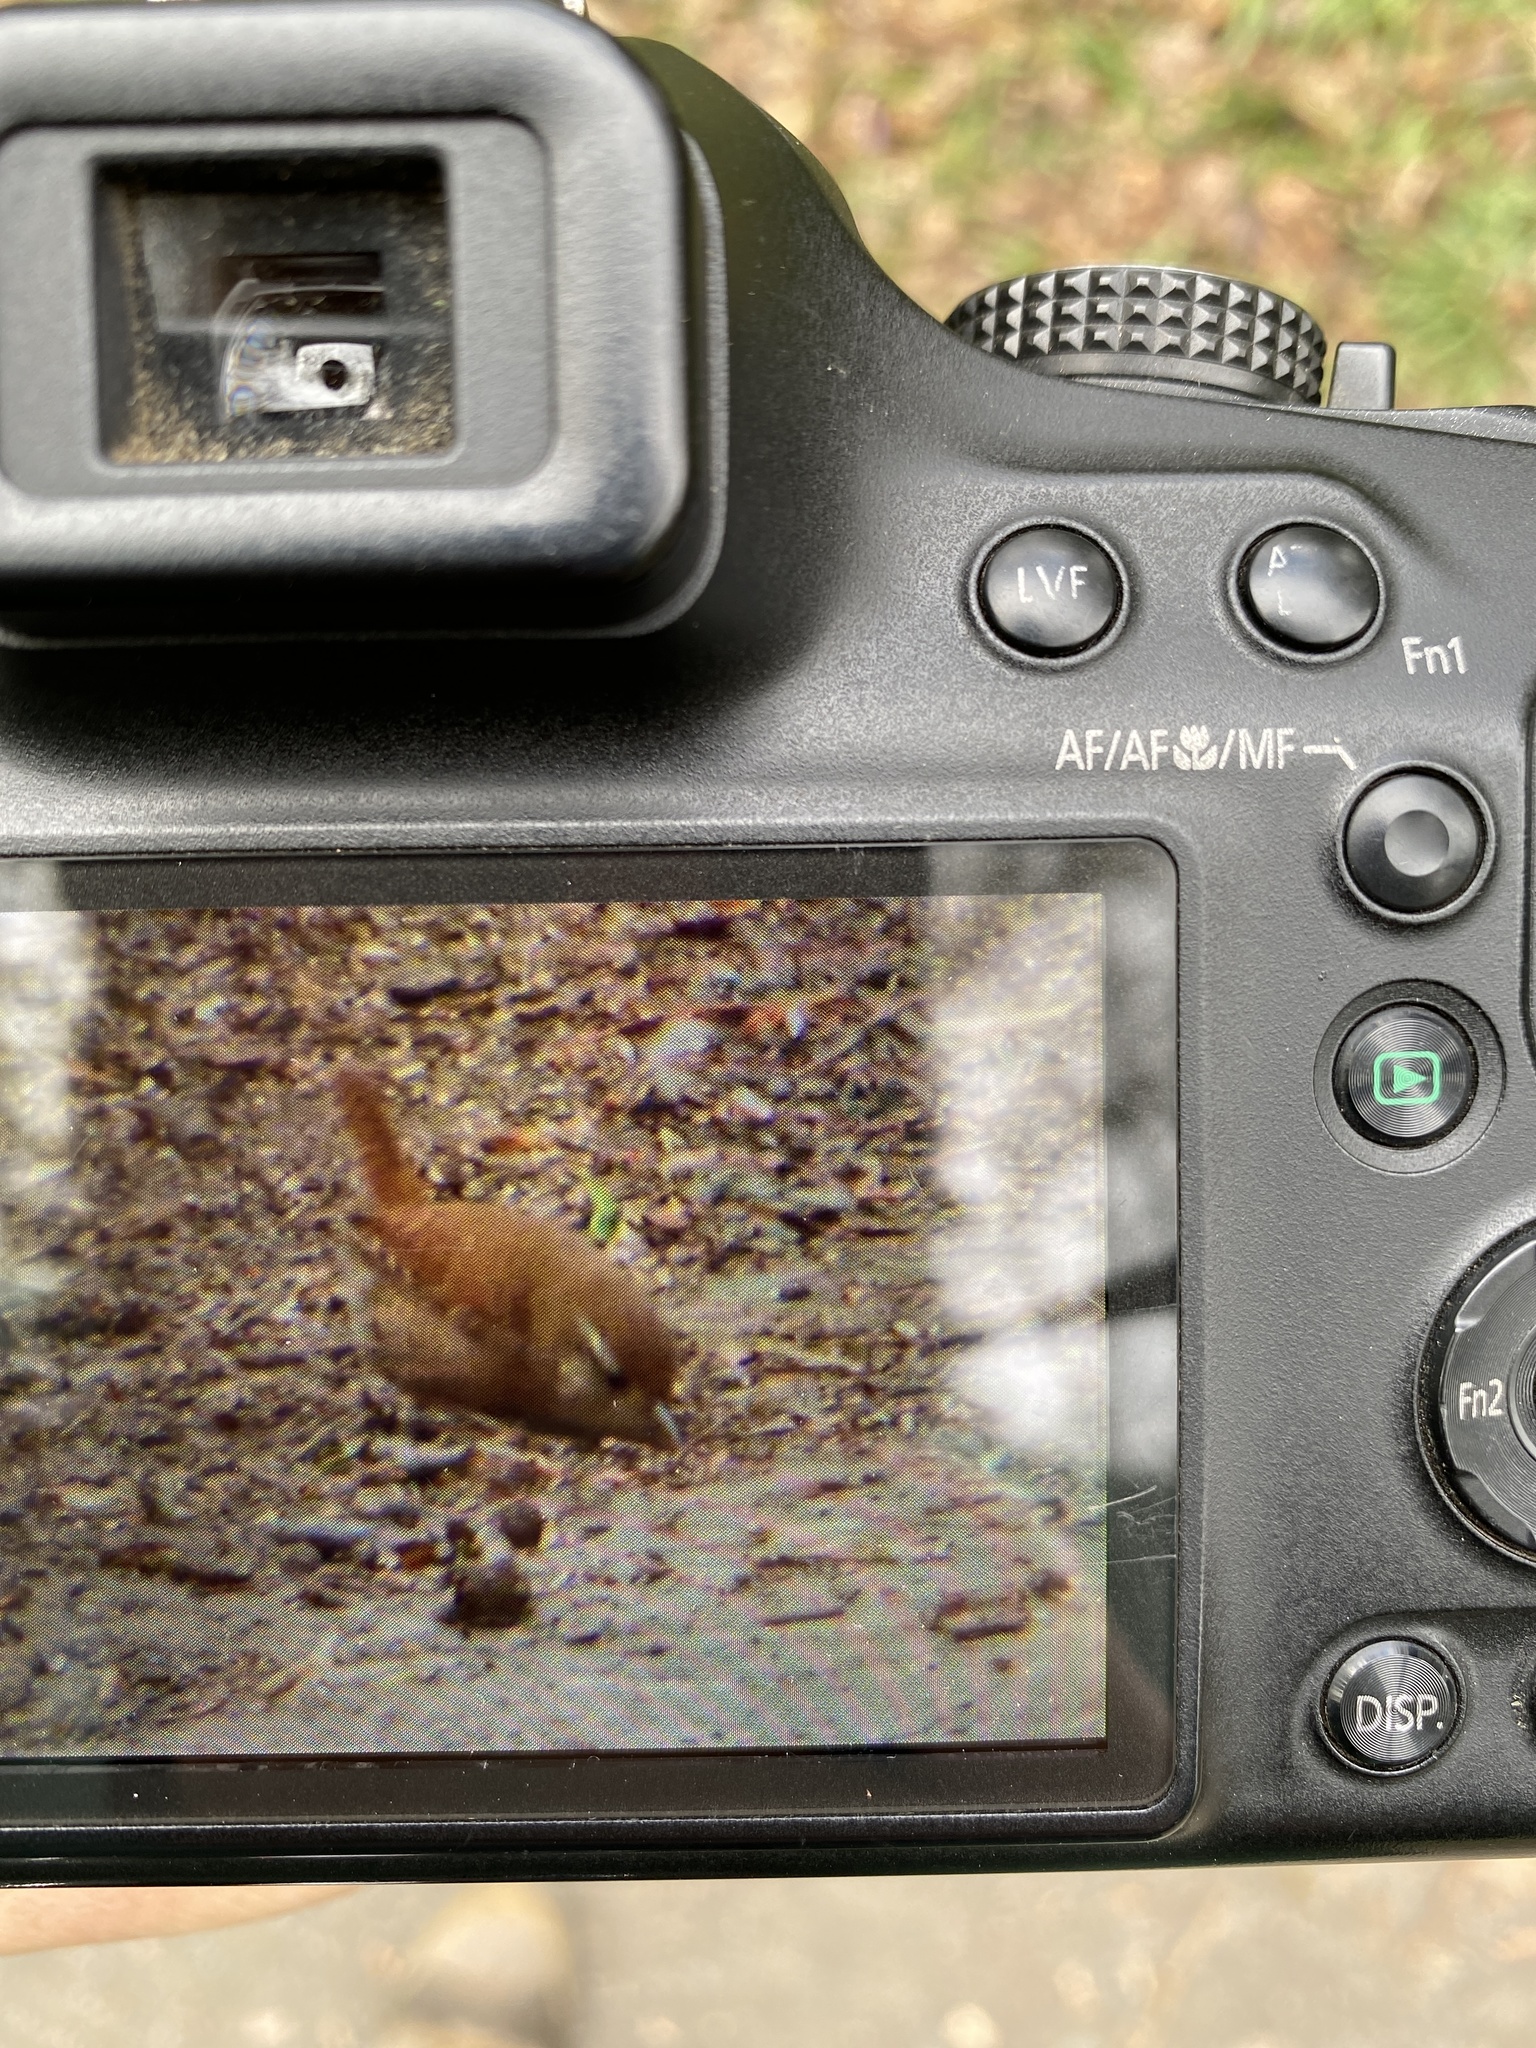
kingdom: Animalia
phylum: Chordata
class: Aves
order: Passeriformes
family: Troglodytidae
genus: Troglodytes
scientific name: Troglodytes troglodytes
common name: Eurasian wren
